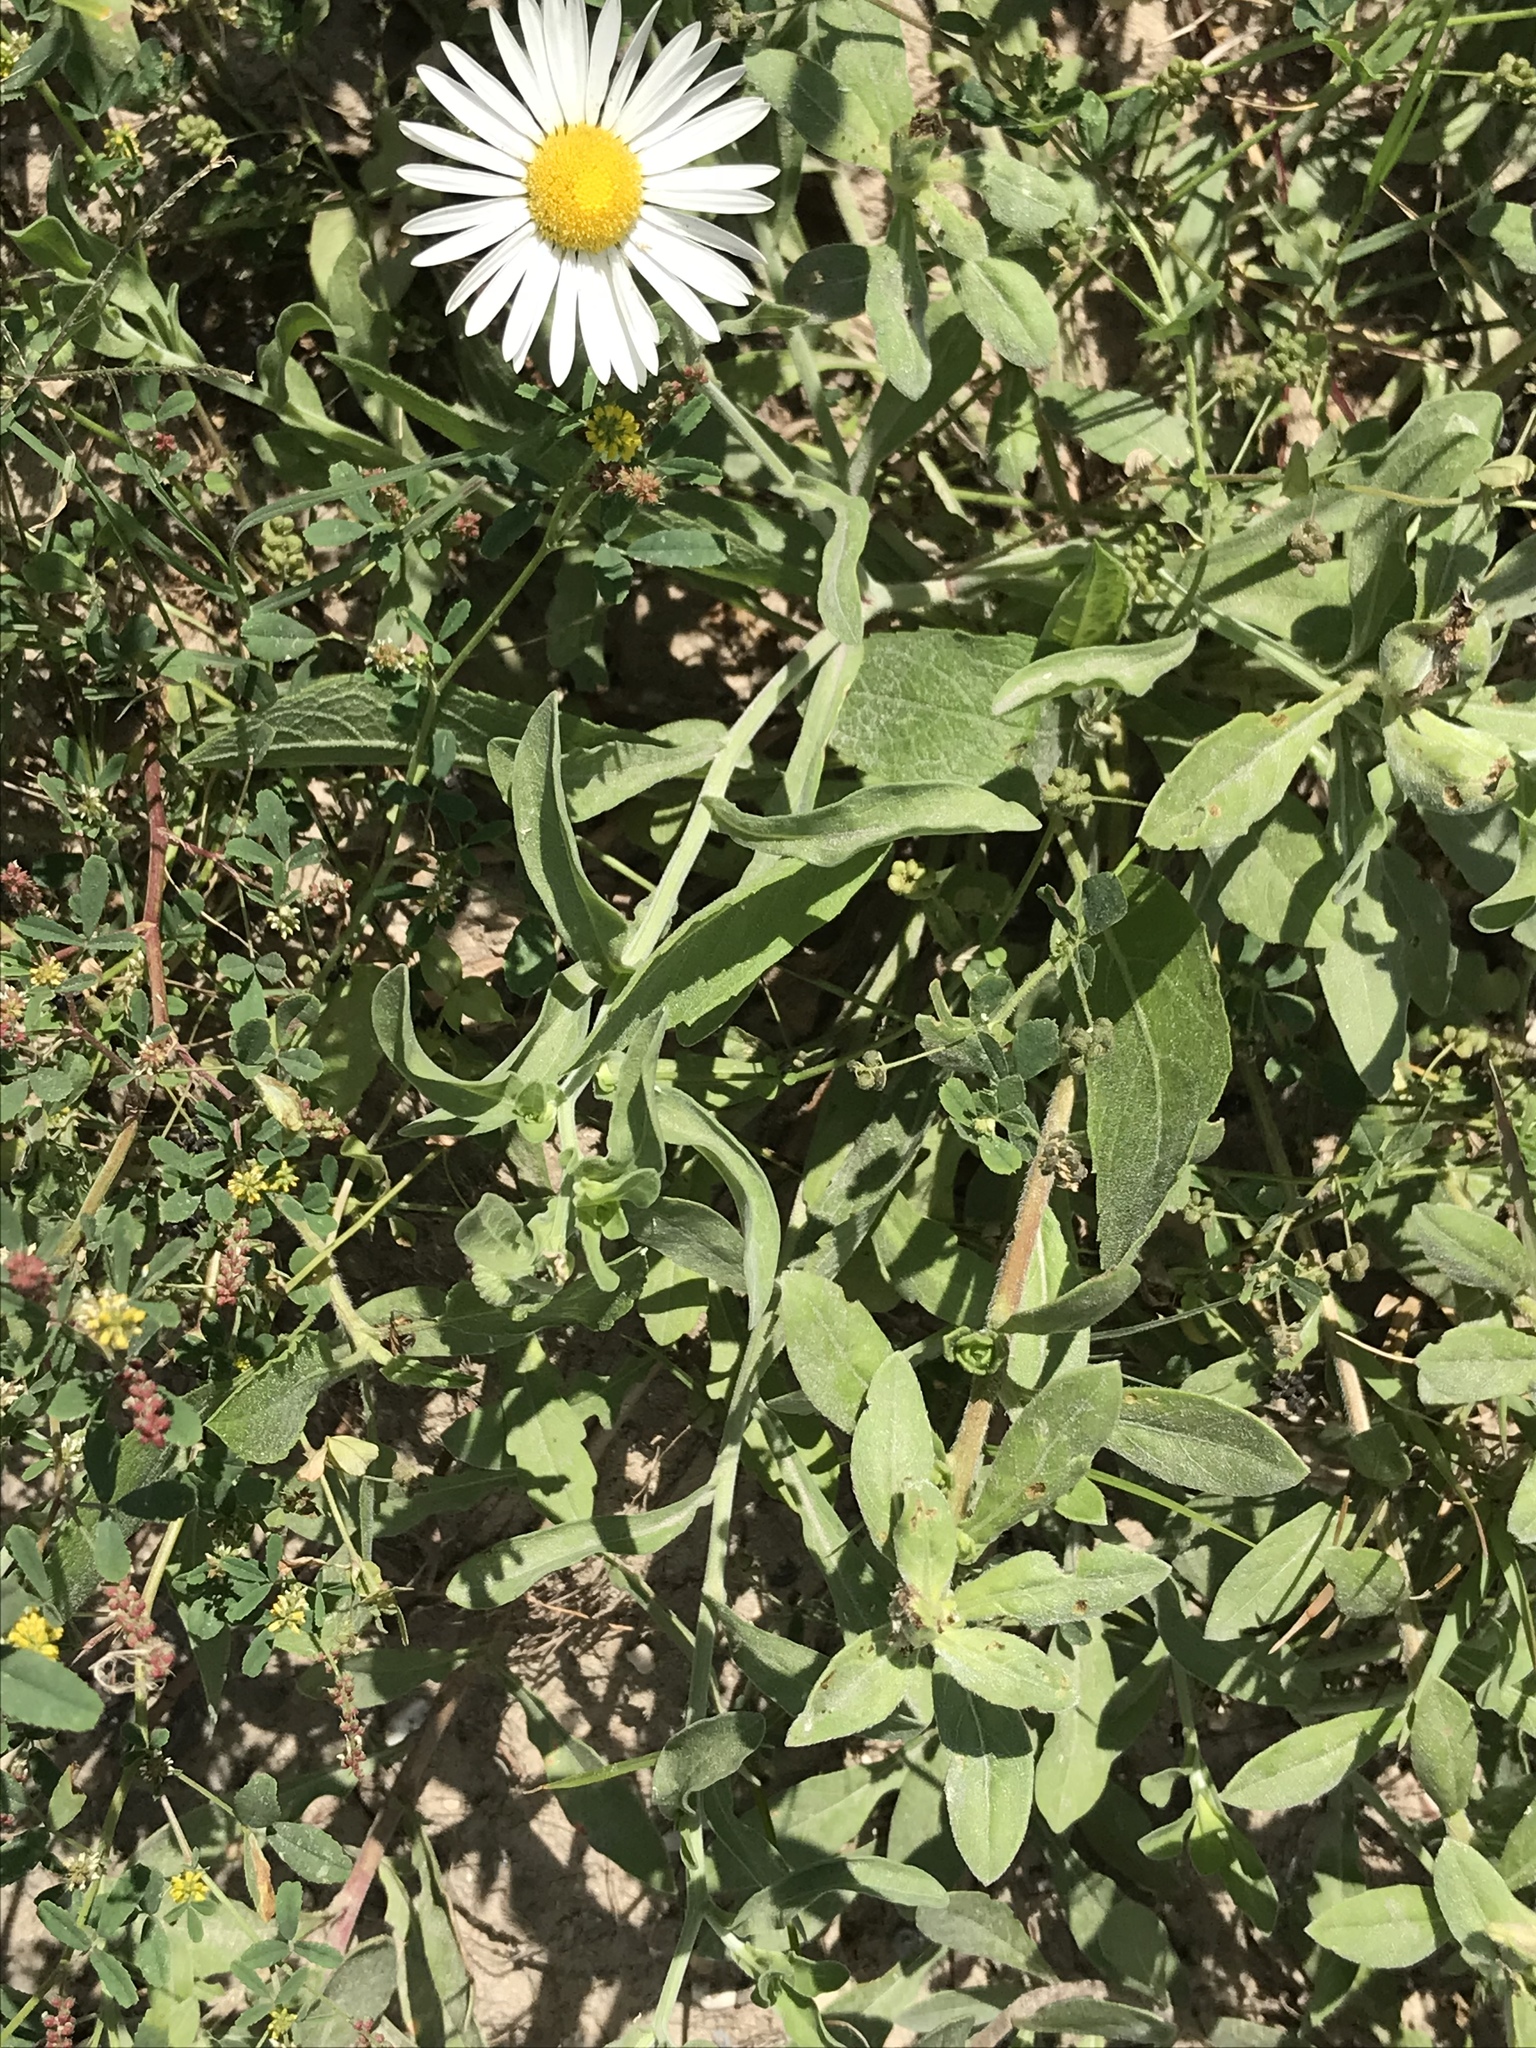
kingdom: Plantae
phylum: Tracheophyta
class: Magnoliopsida
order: Asterales
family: Asteraceae
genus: Aphanostephus
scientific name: Aphanostephus skirrhobasis
